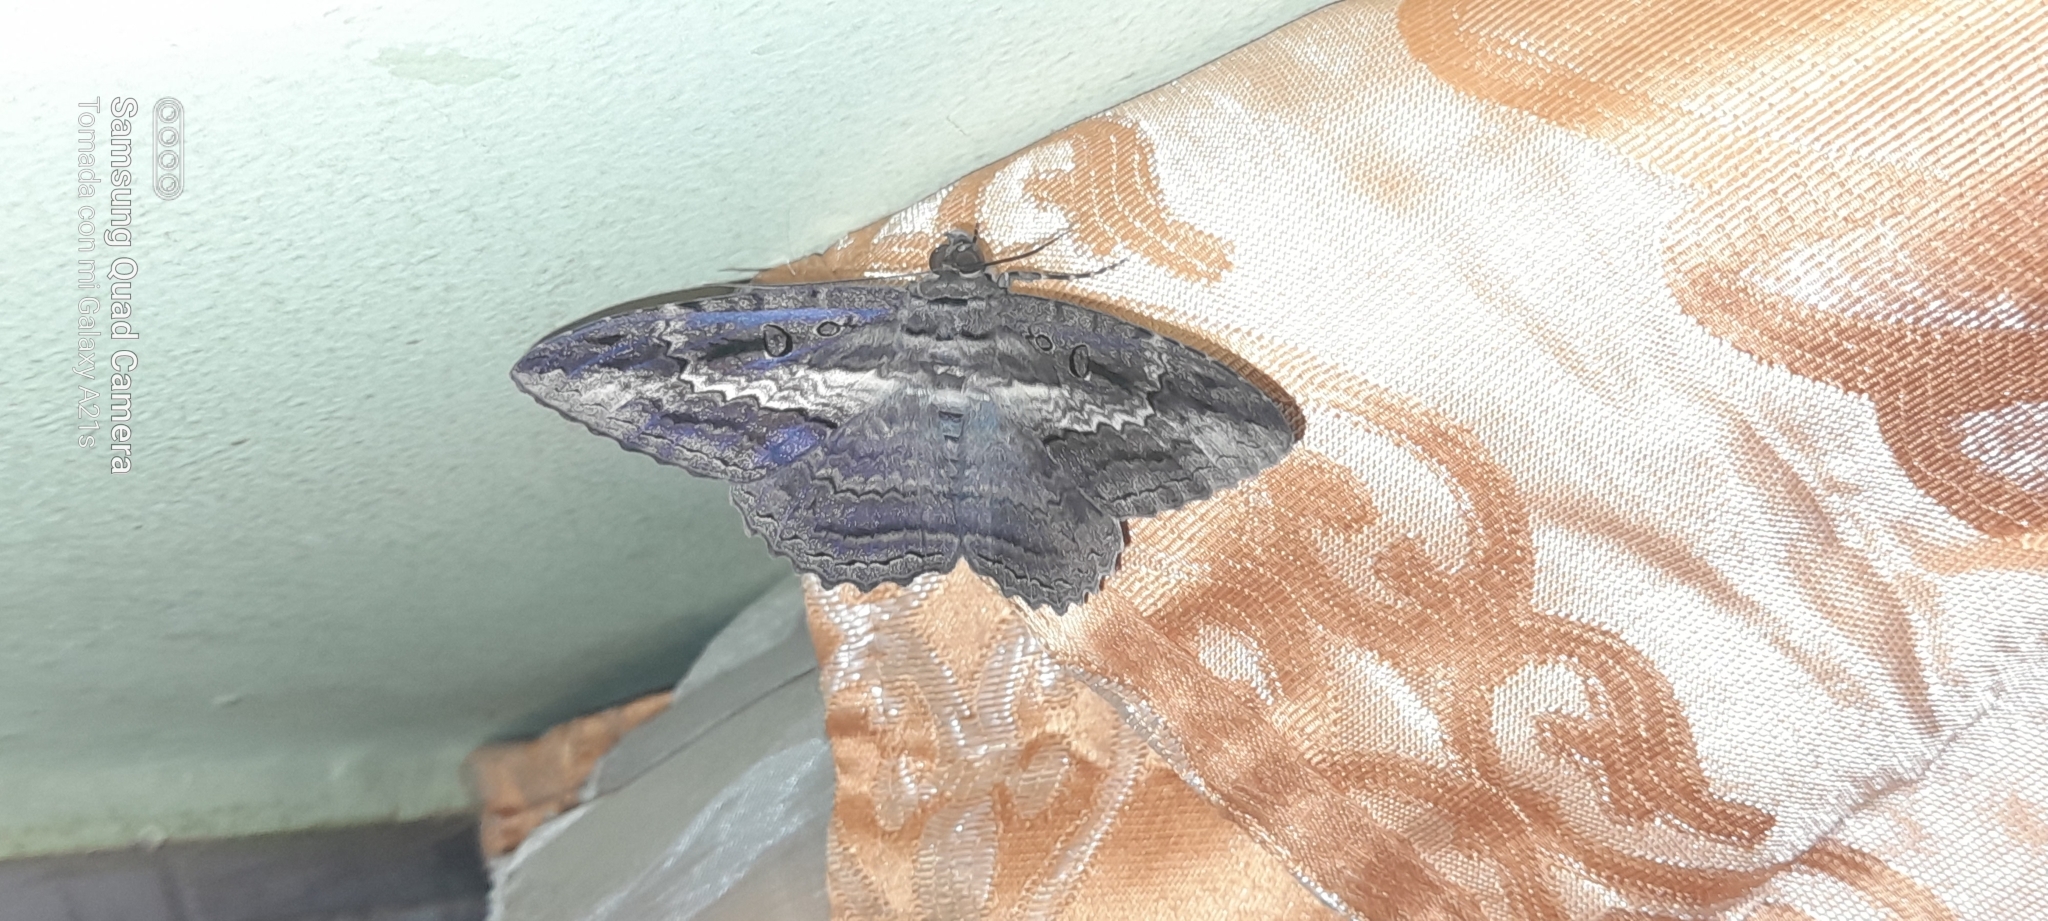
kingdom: Animalia
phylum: Arthropoda
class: Insecta
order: Lepidoptera
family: Erebidae
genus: Feigeria
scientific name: Feigeria buteo
